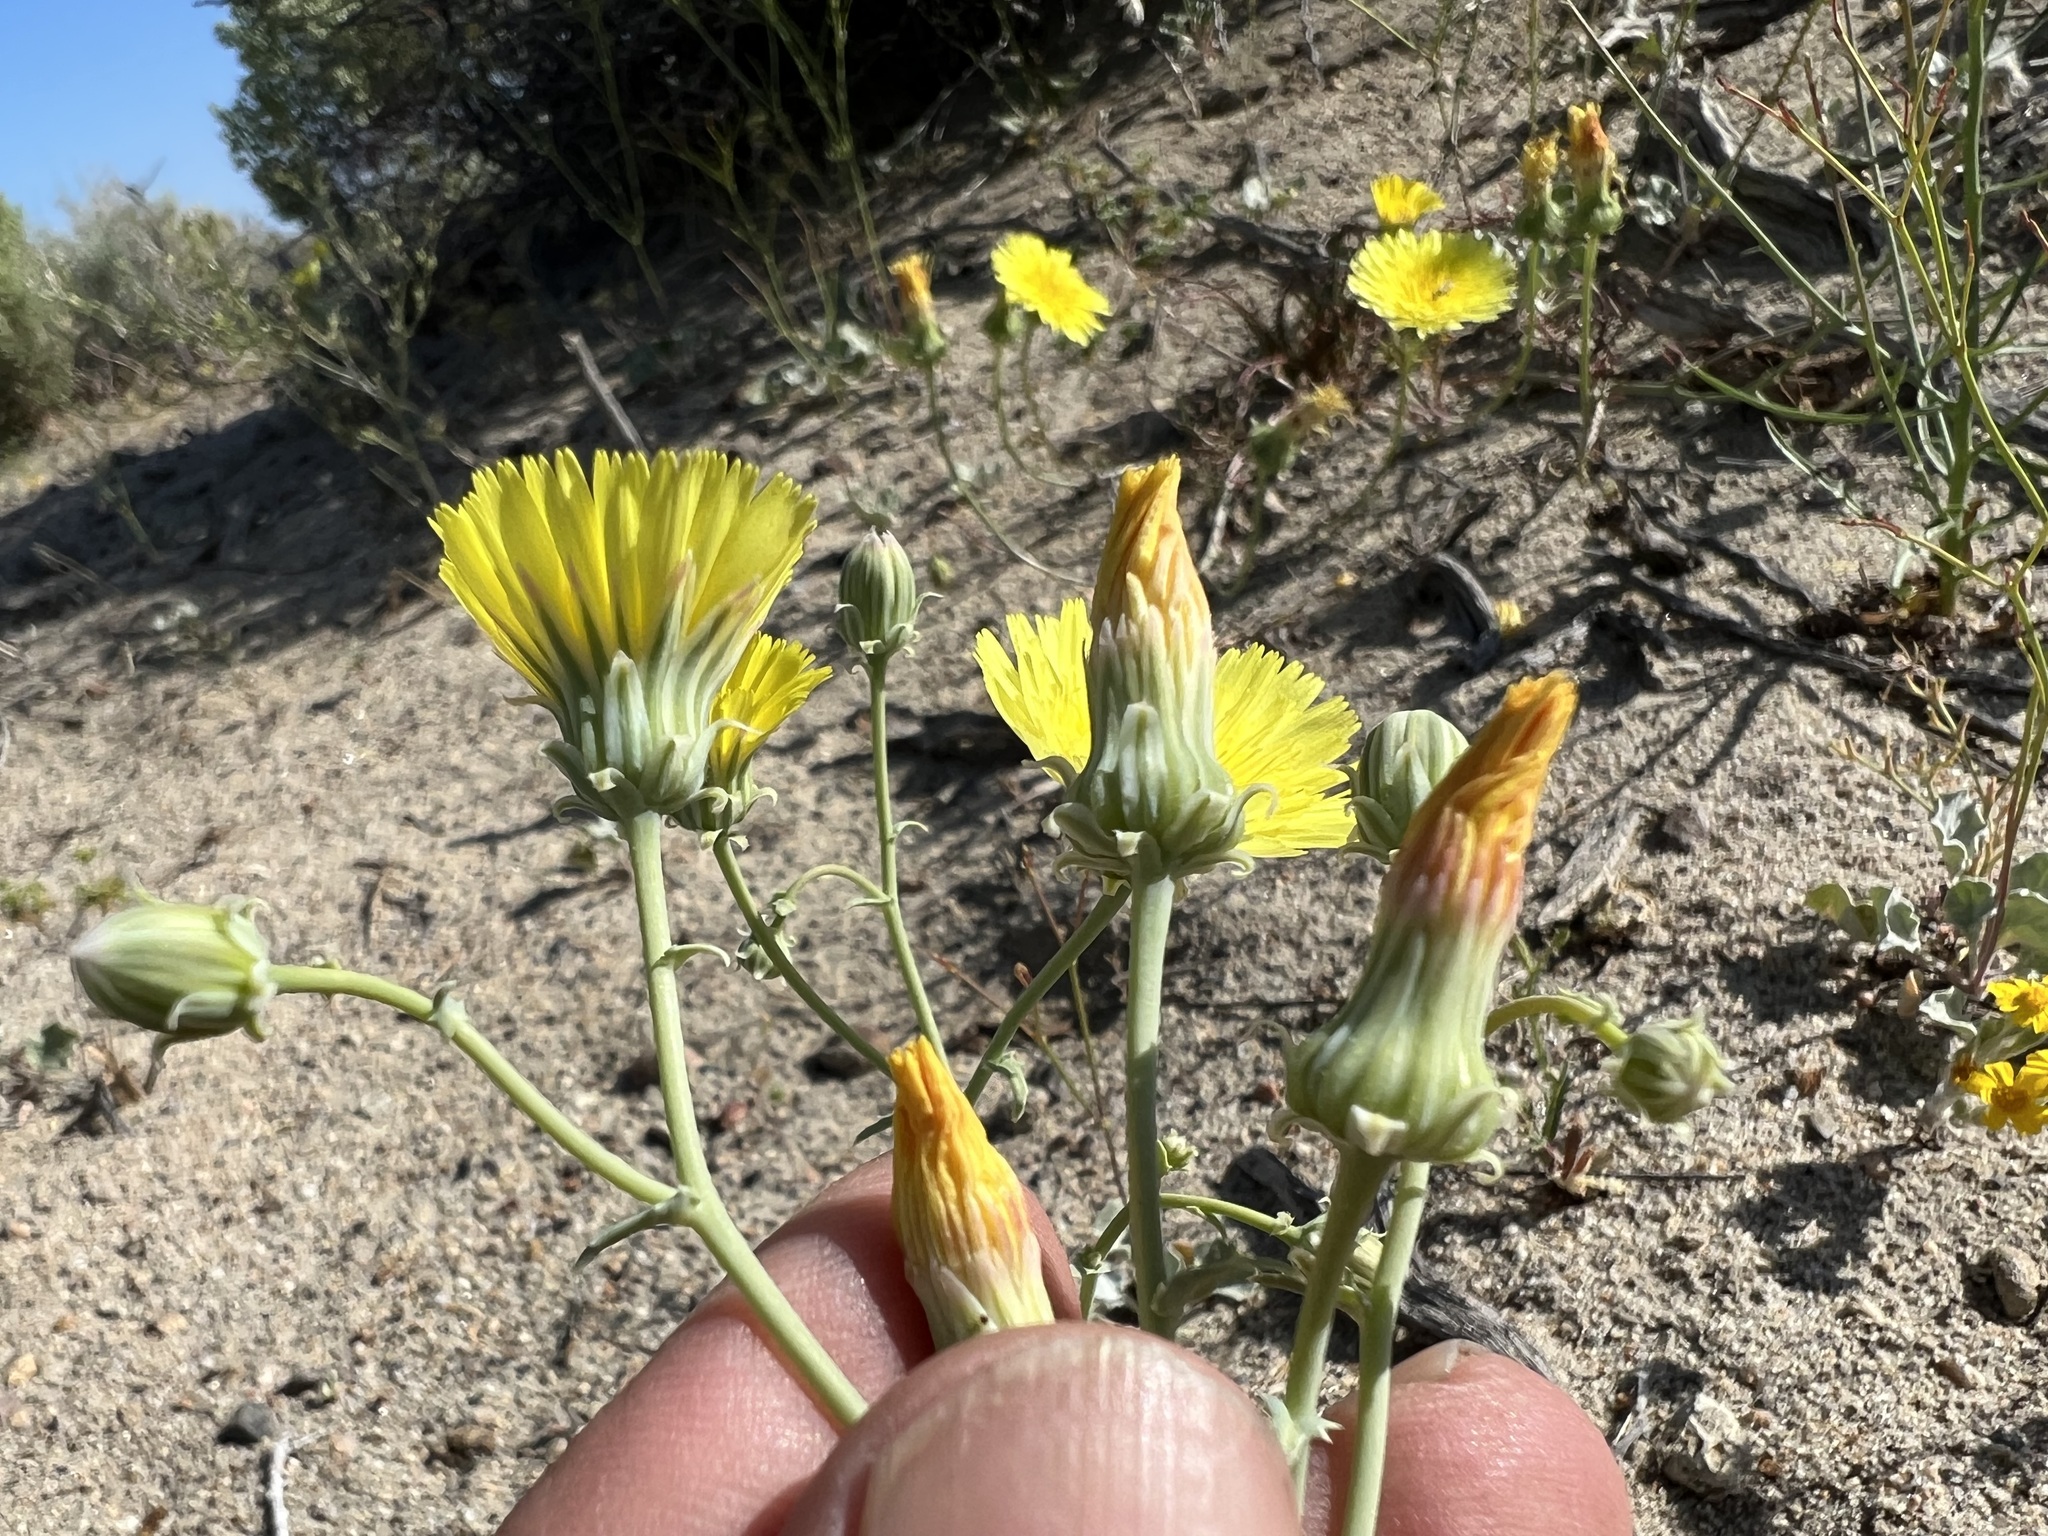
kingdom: Plantae
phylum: Tracheophyta
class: Magnoliopsida
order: Asterales
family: Asteraceae
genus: Malacothrix
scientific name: Malacothrix sonchoides
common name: Sow-thistle desert-dandelion
